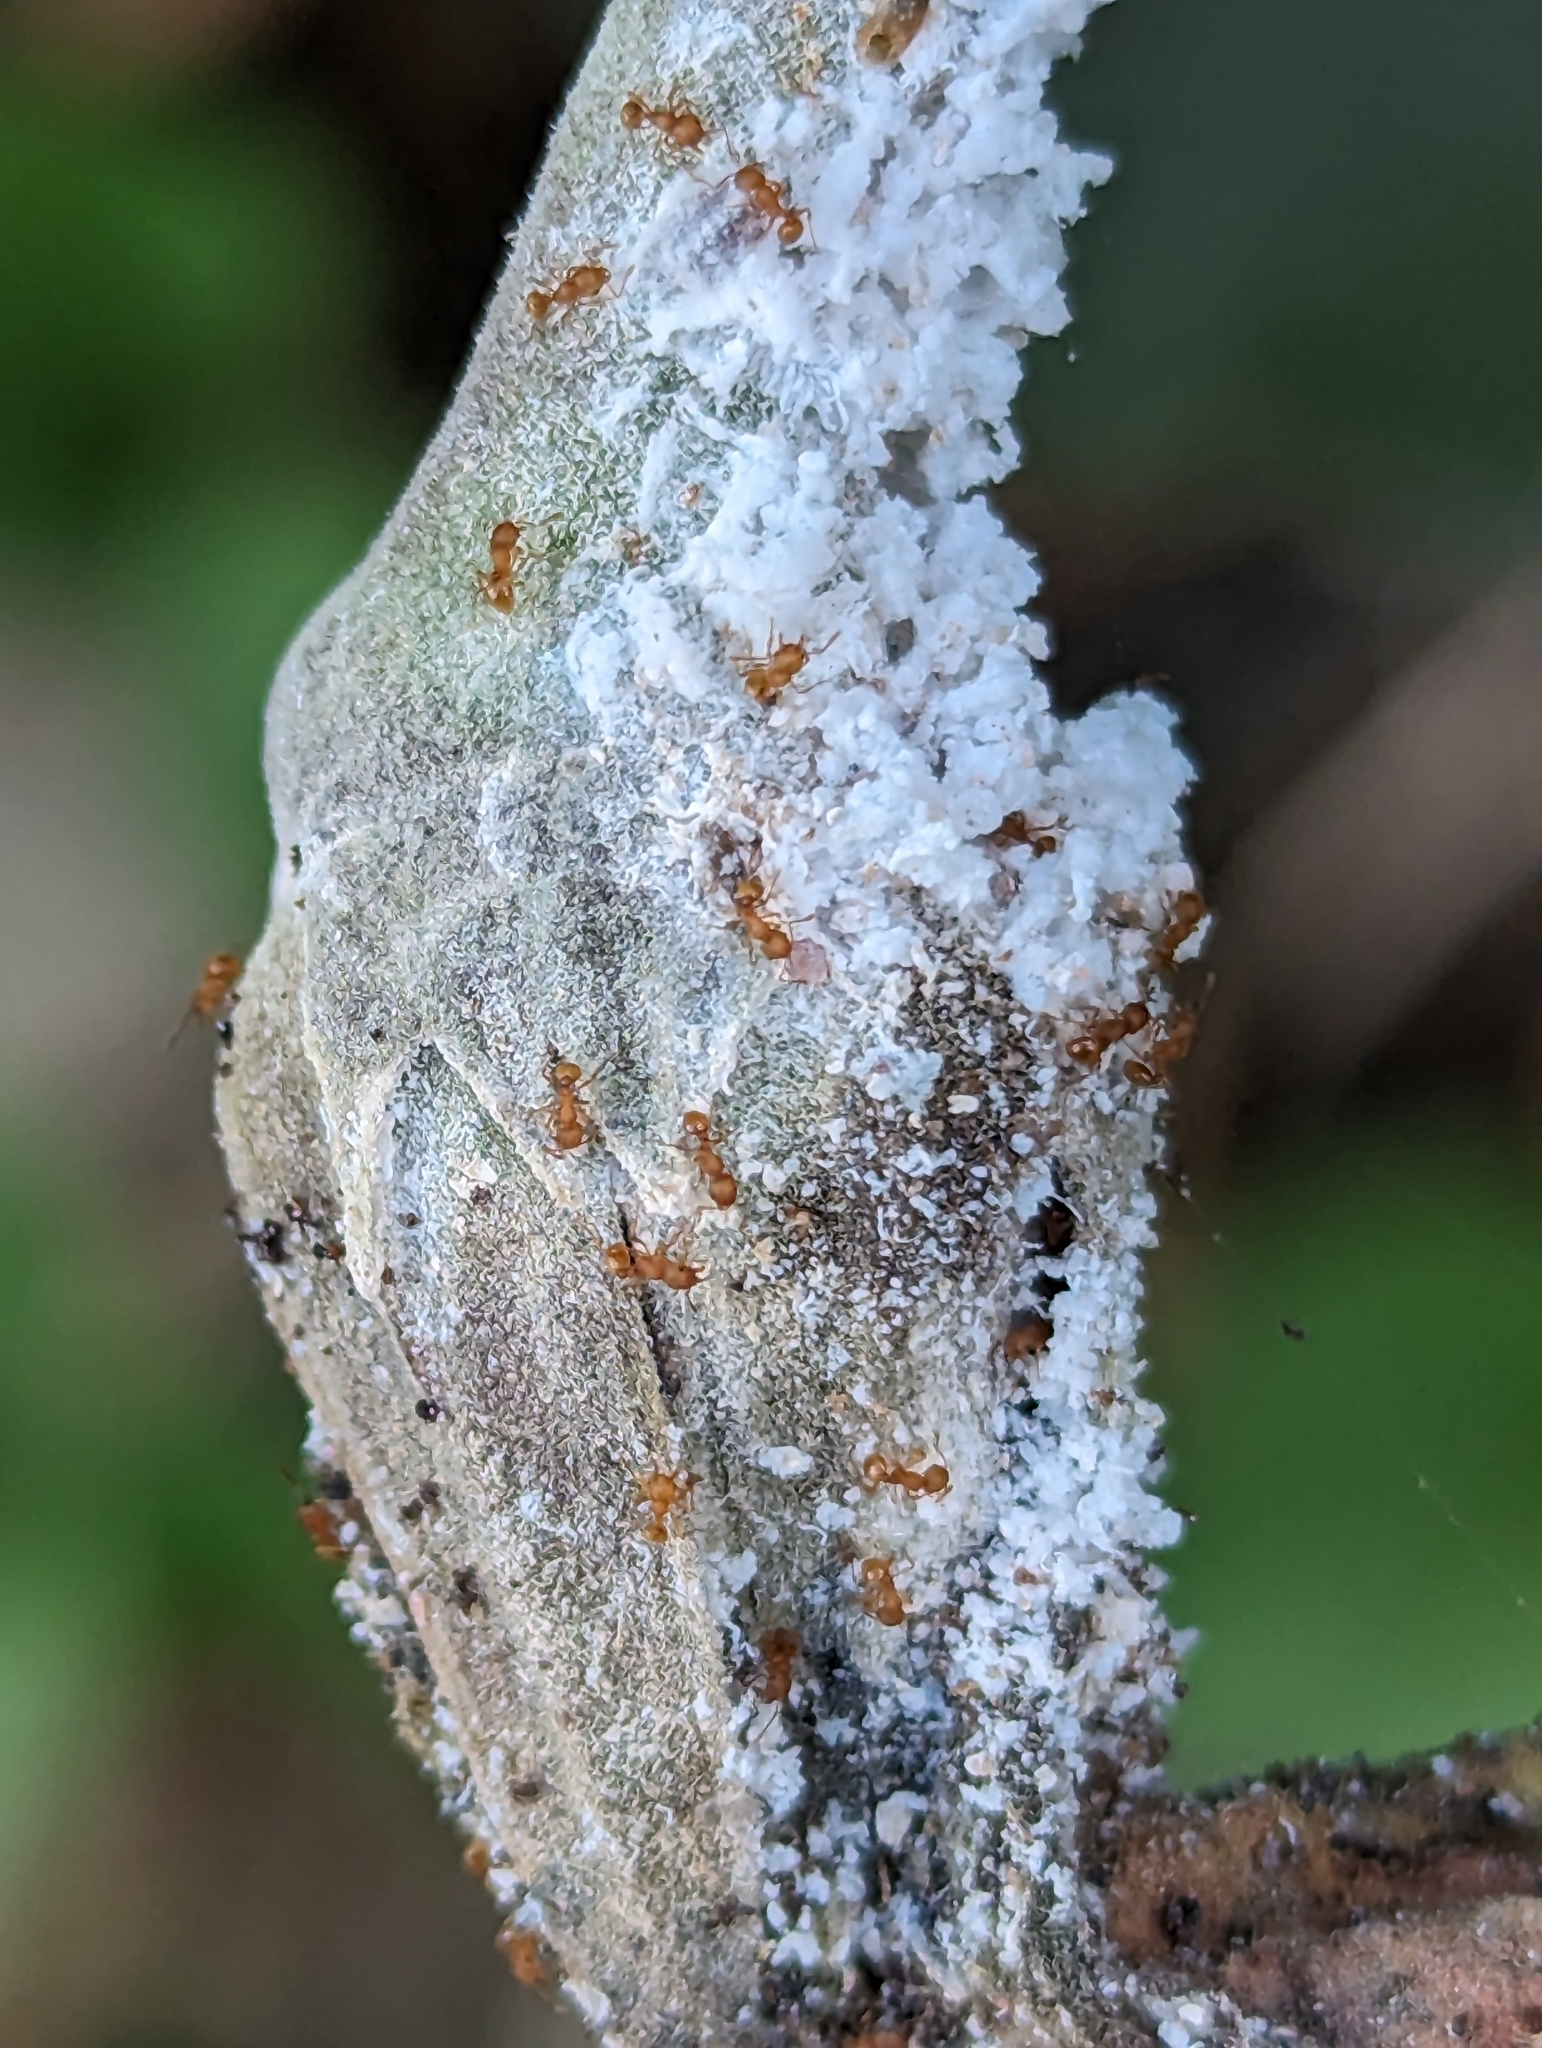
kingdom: Animalia
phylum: Arthropoda
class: Insecta
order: Hymenoptera
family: Formicidae
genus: Wasmannia
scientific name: Wasmannia auropunctata
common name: Little fire ant
